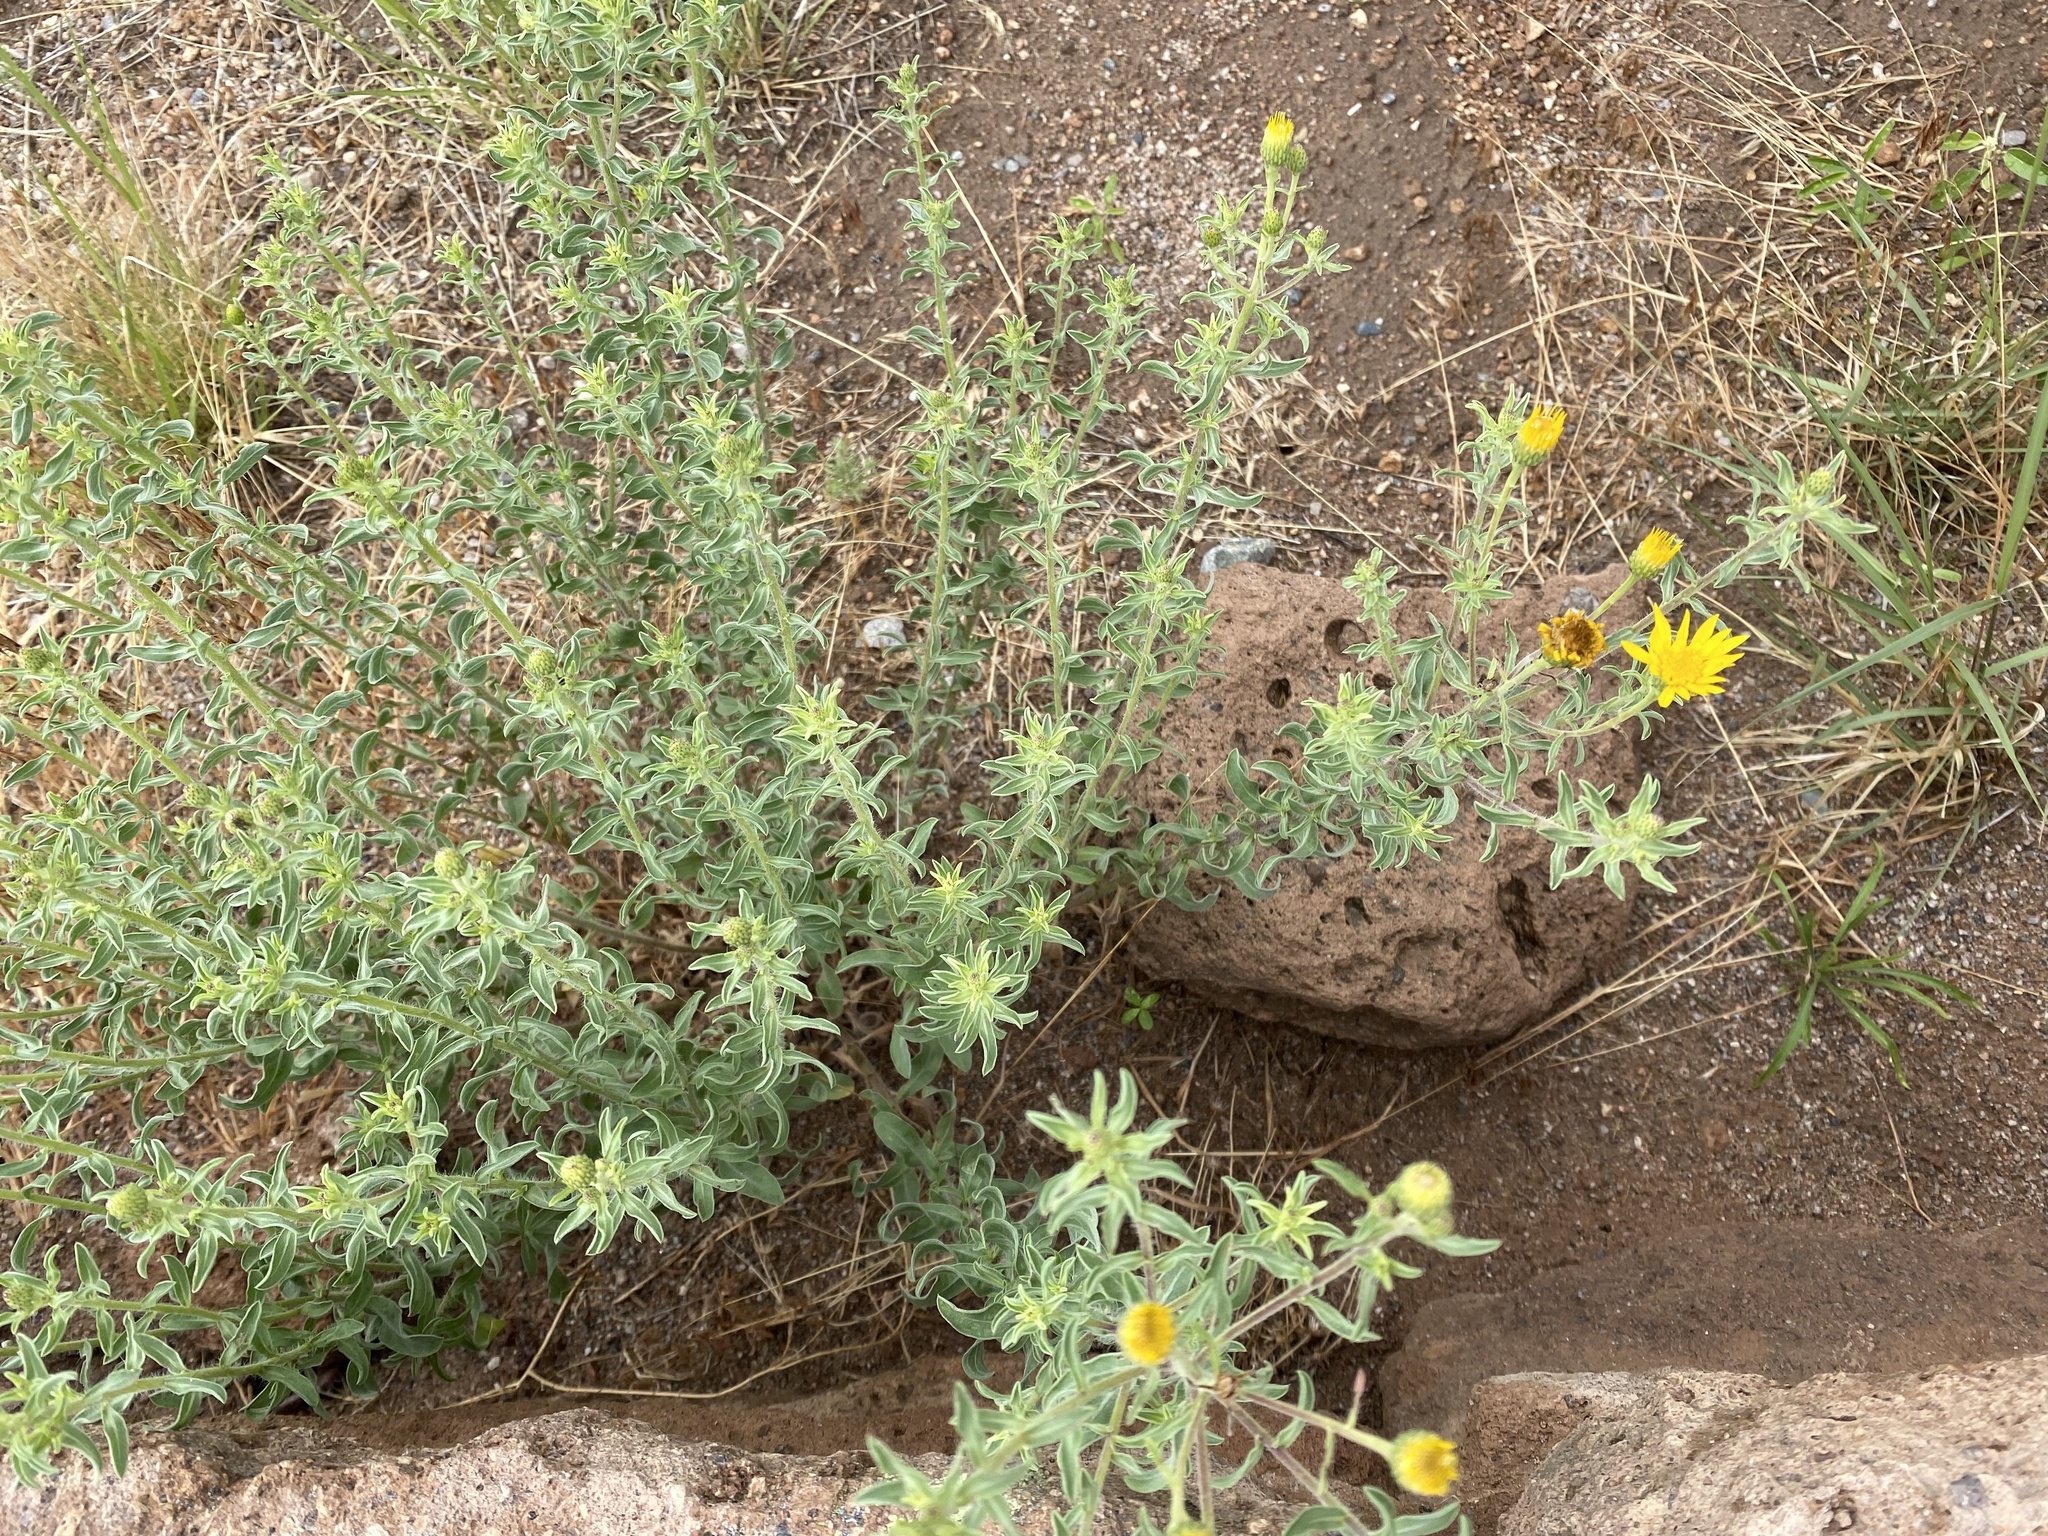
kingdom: Plantae
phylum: Tracheophyta
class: Magnoliopsida
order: Asterales
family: Asteraceae
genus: Heterotheca
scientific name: Heterotheca hirsutissima
